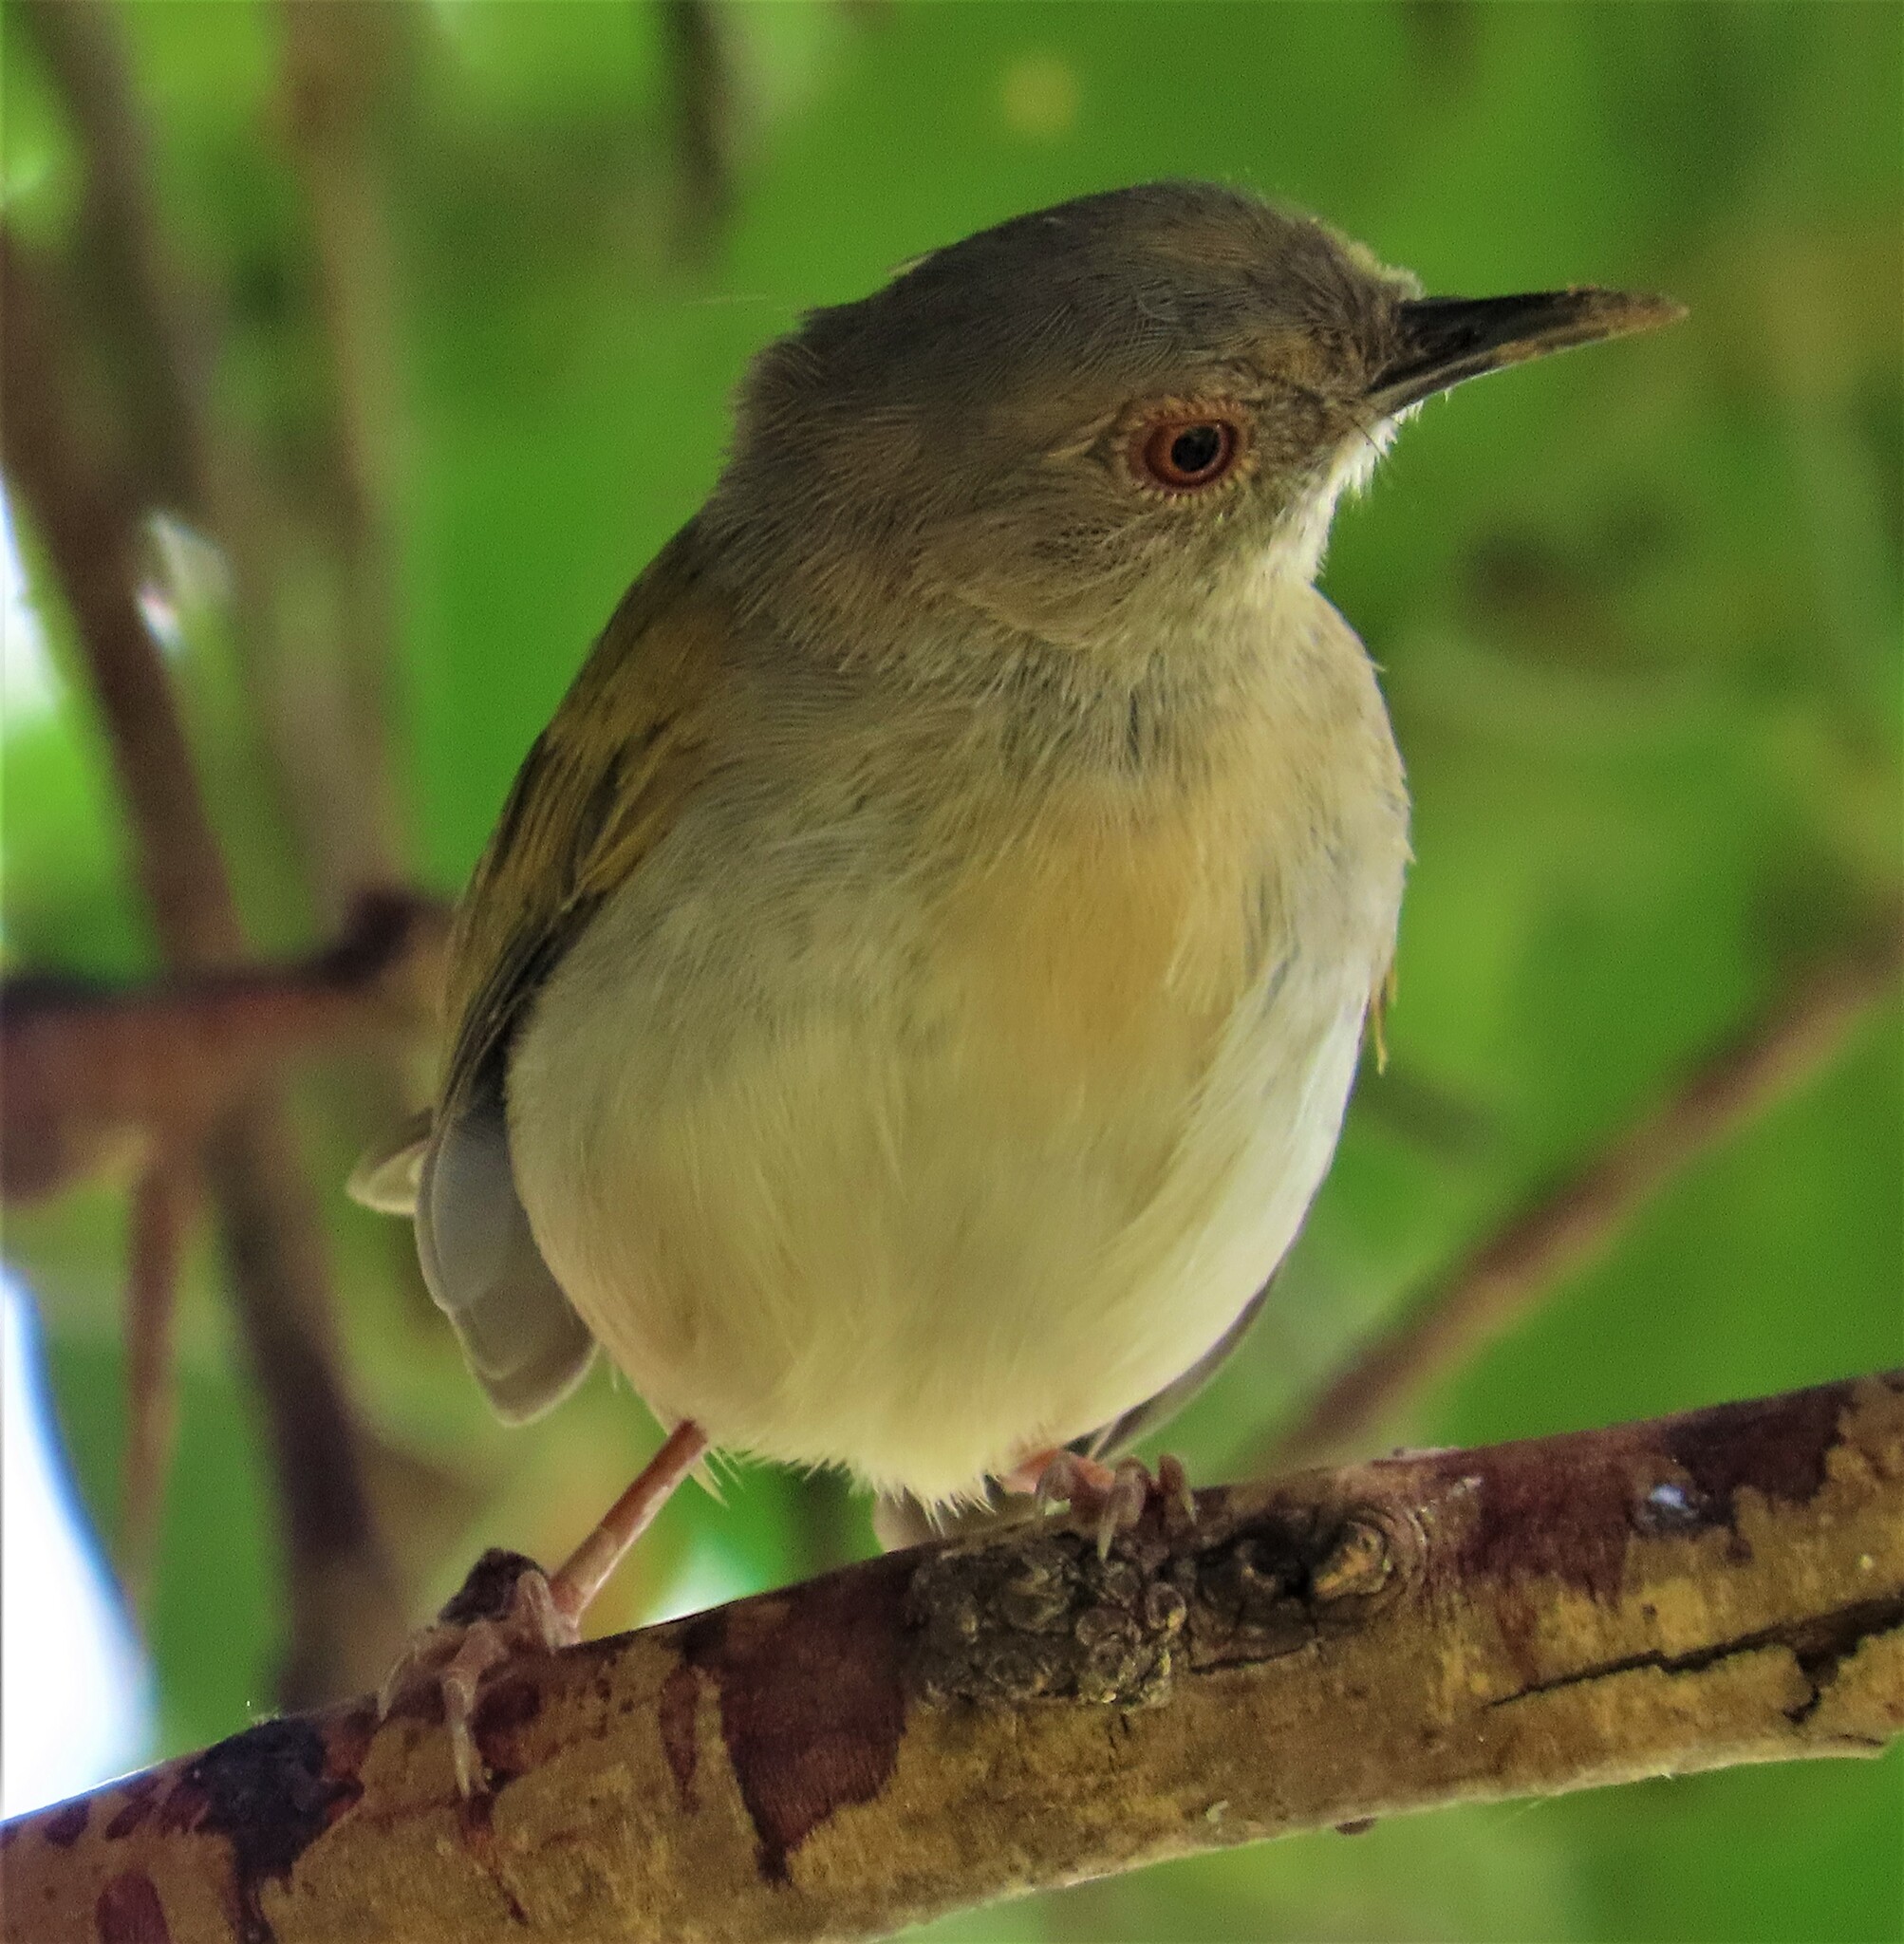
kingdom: Animalia
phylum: Chordata
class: Aves
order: Passeriformes
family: Cisticolidae
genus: Camaroptera
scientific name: Camaroptera brachyura
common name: Green-backed camaroptera
